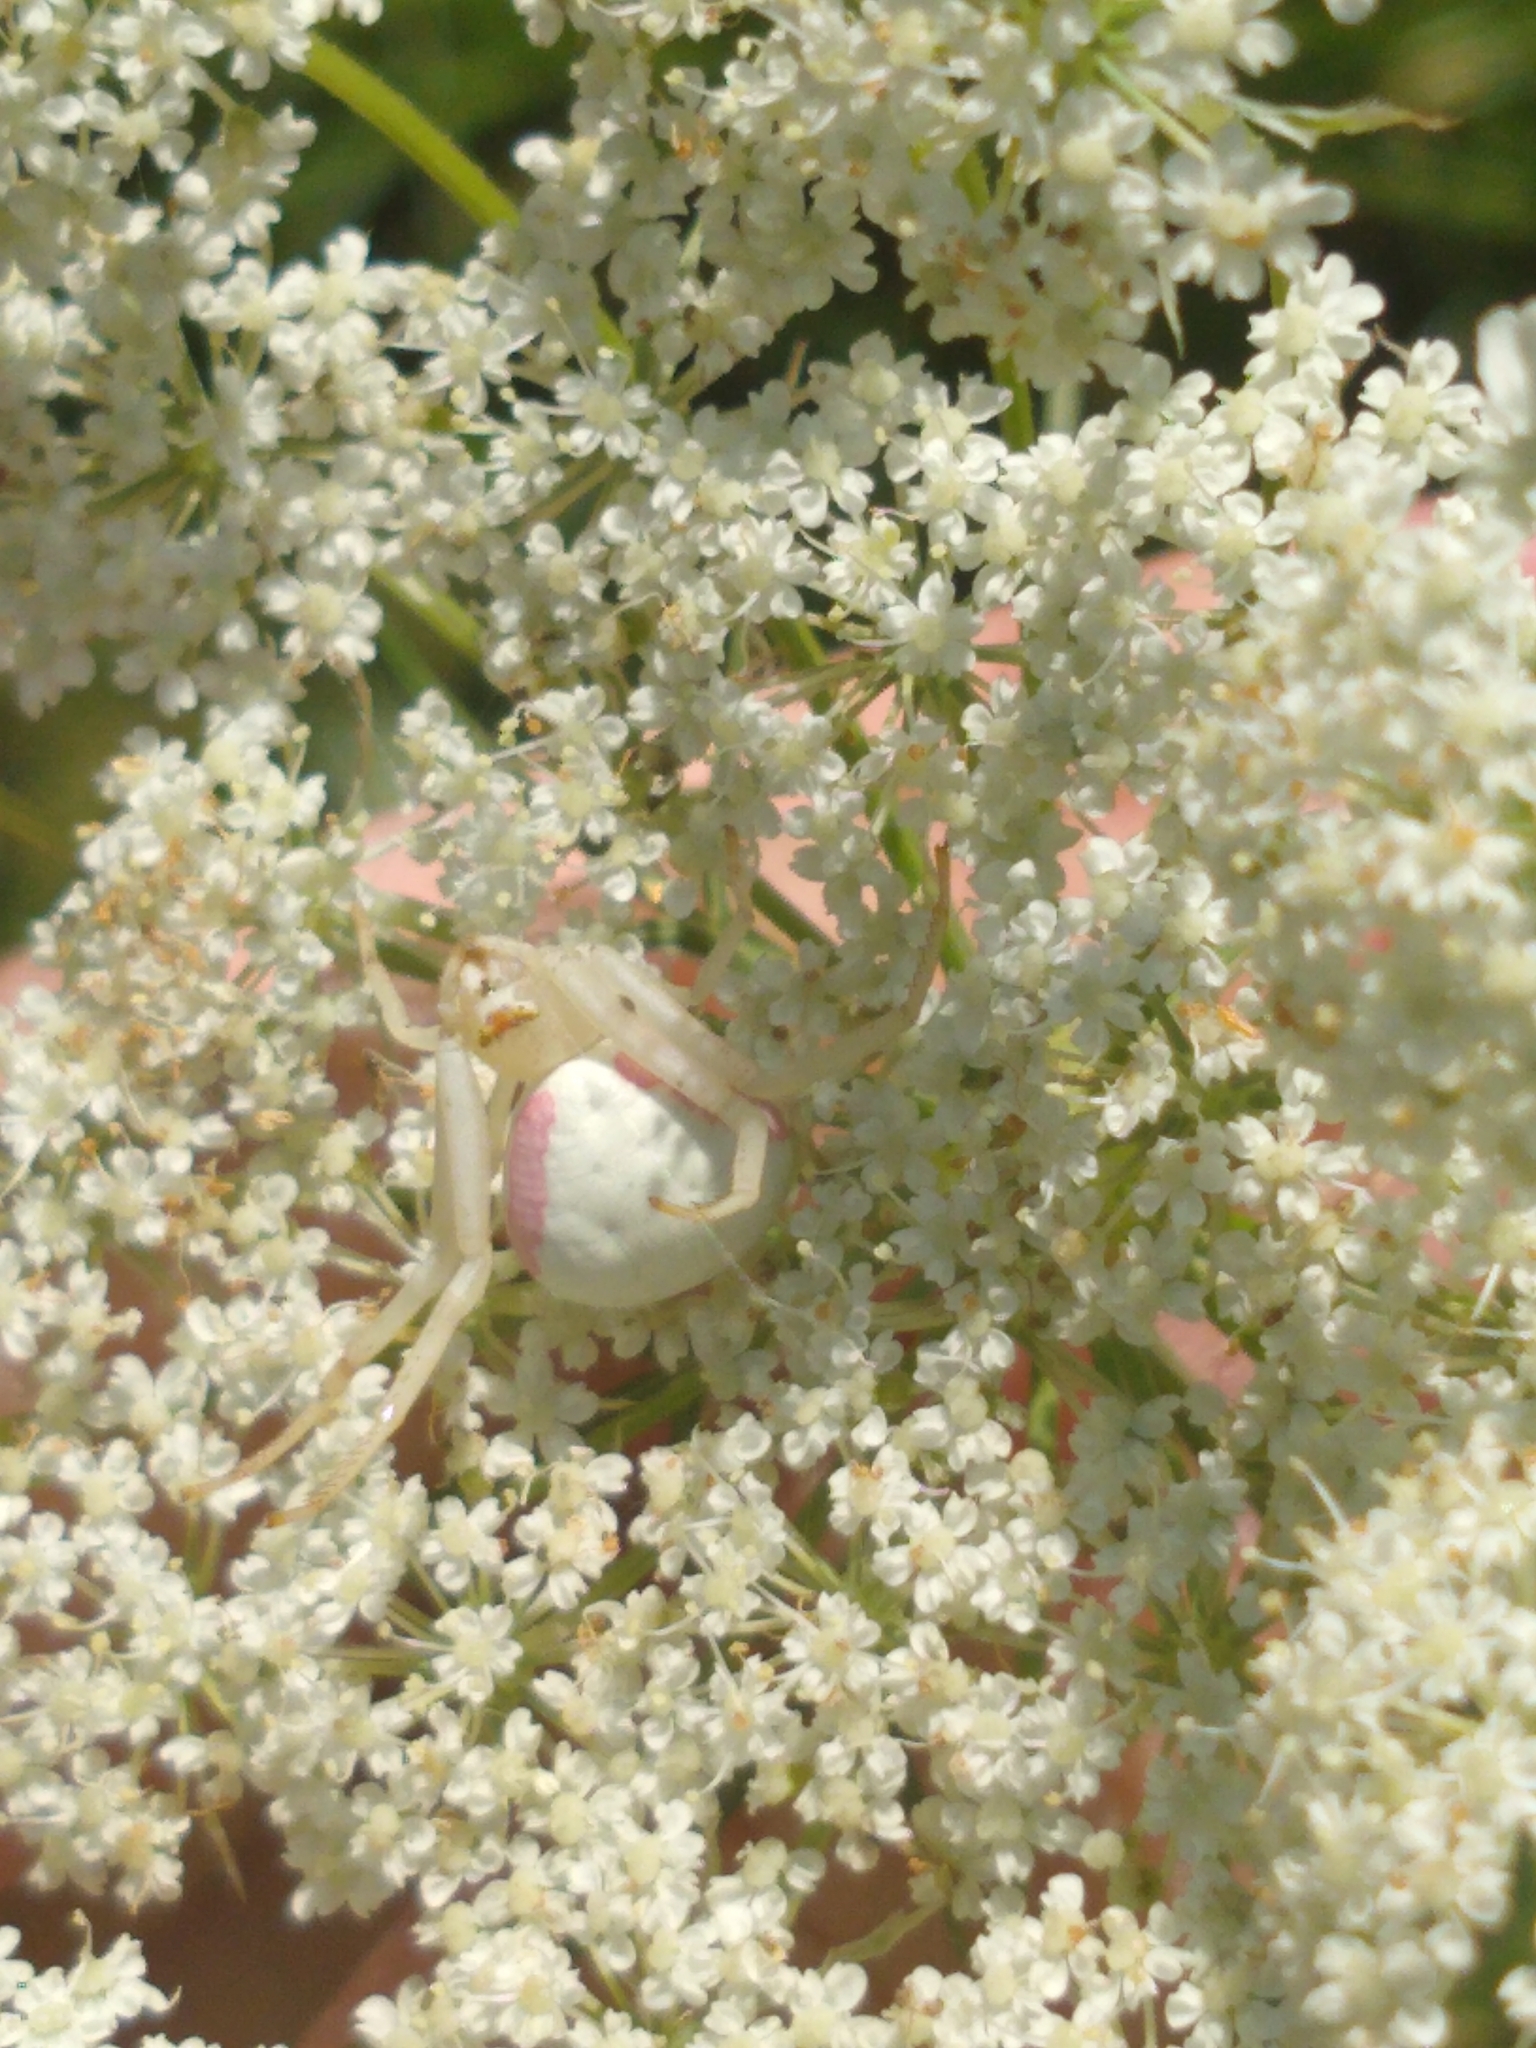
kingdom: Animalia
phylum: Arthropoda
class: Arachnida
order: Araneae
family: Thomisidae
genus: Misumena
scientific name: Misumena vatia
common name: Goldenrod crab spider
